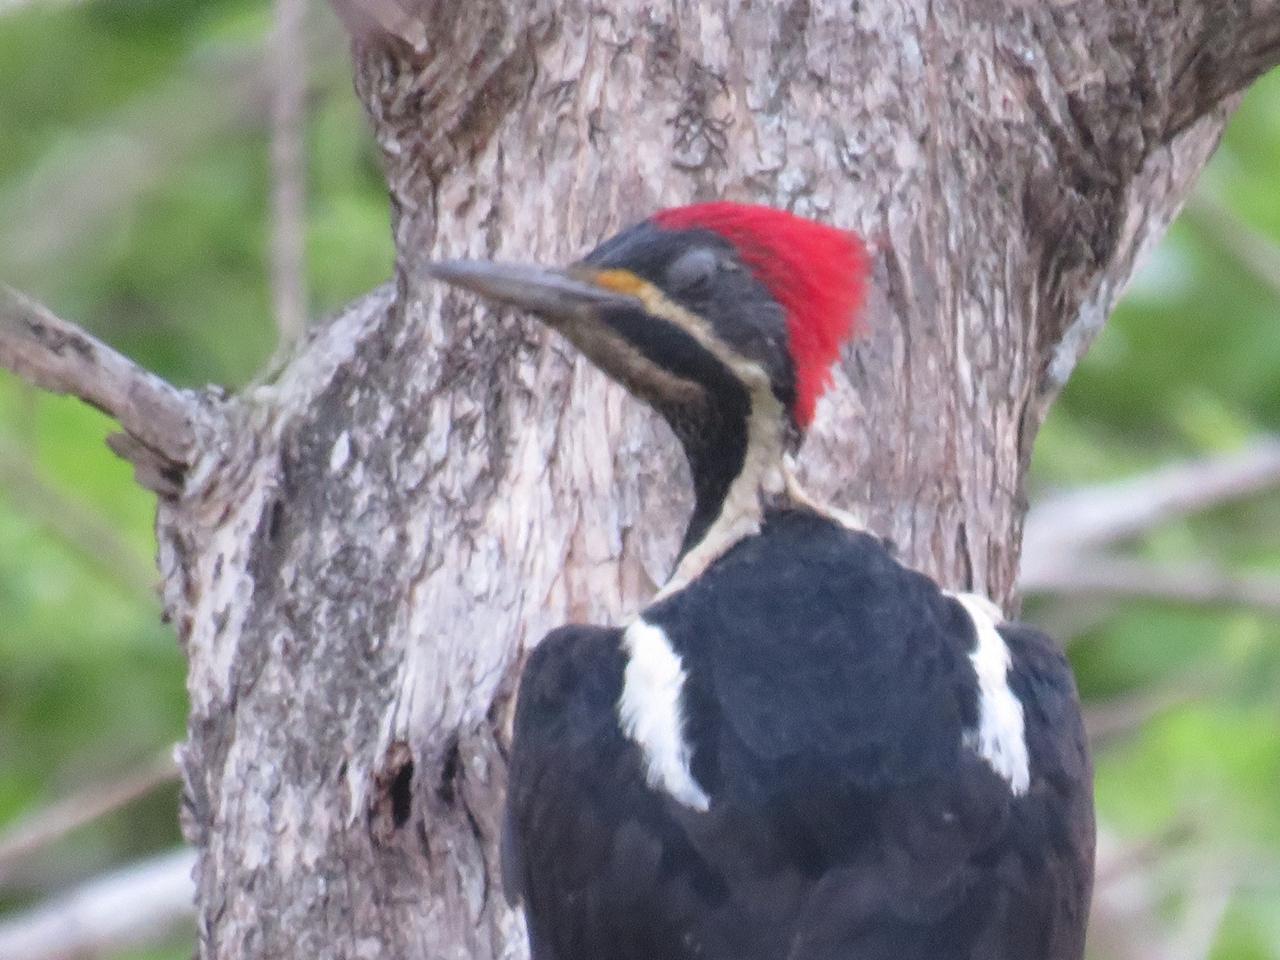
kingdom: Animalia
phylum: Chordata
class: Aves
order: Piciformes
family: Picidae
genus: Dryocopus
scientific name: Dryocopus lineatus
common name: Lineated woodpecker
